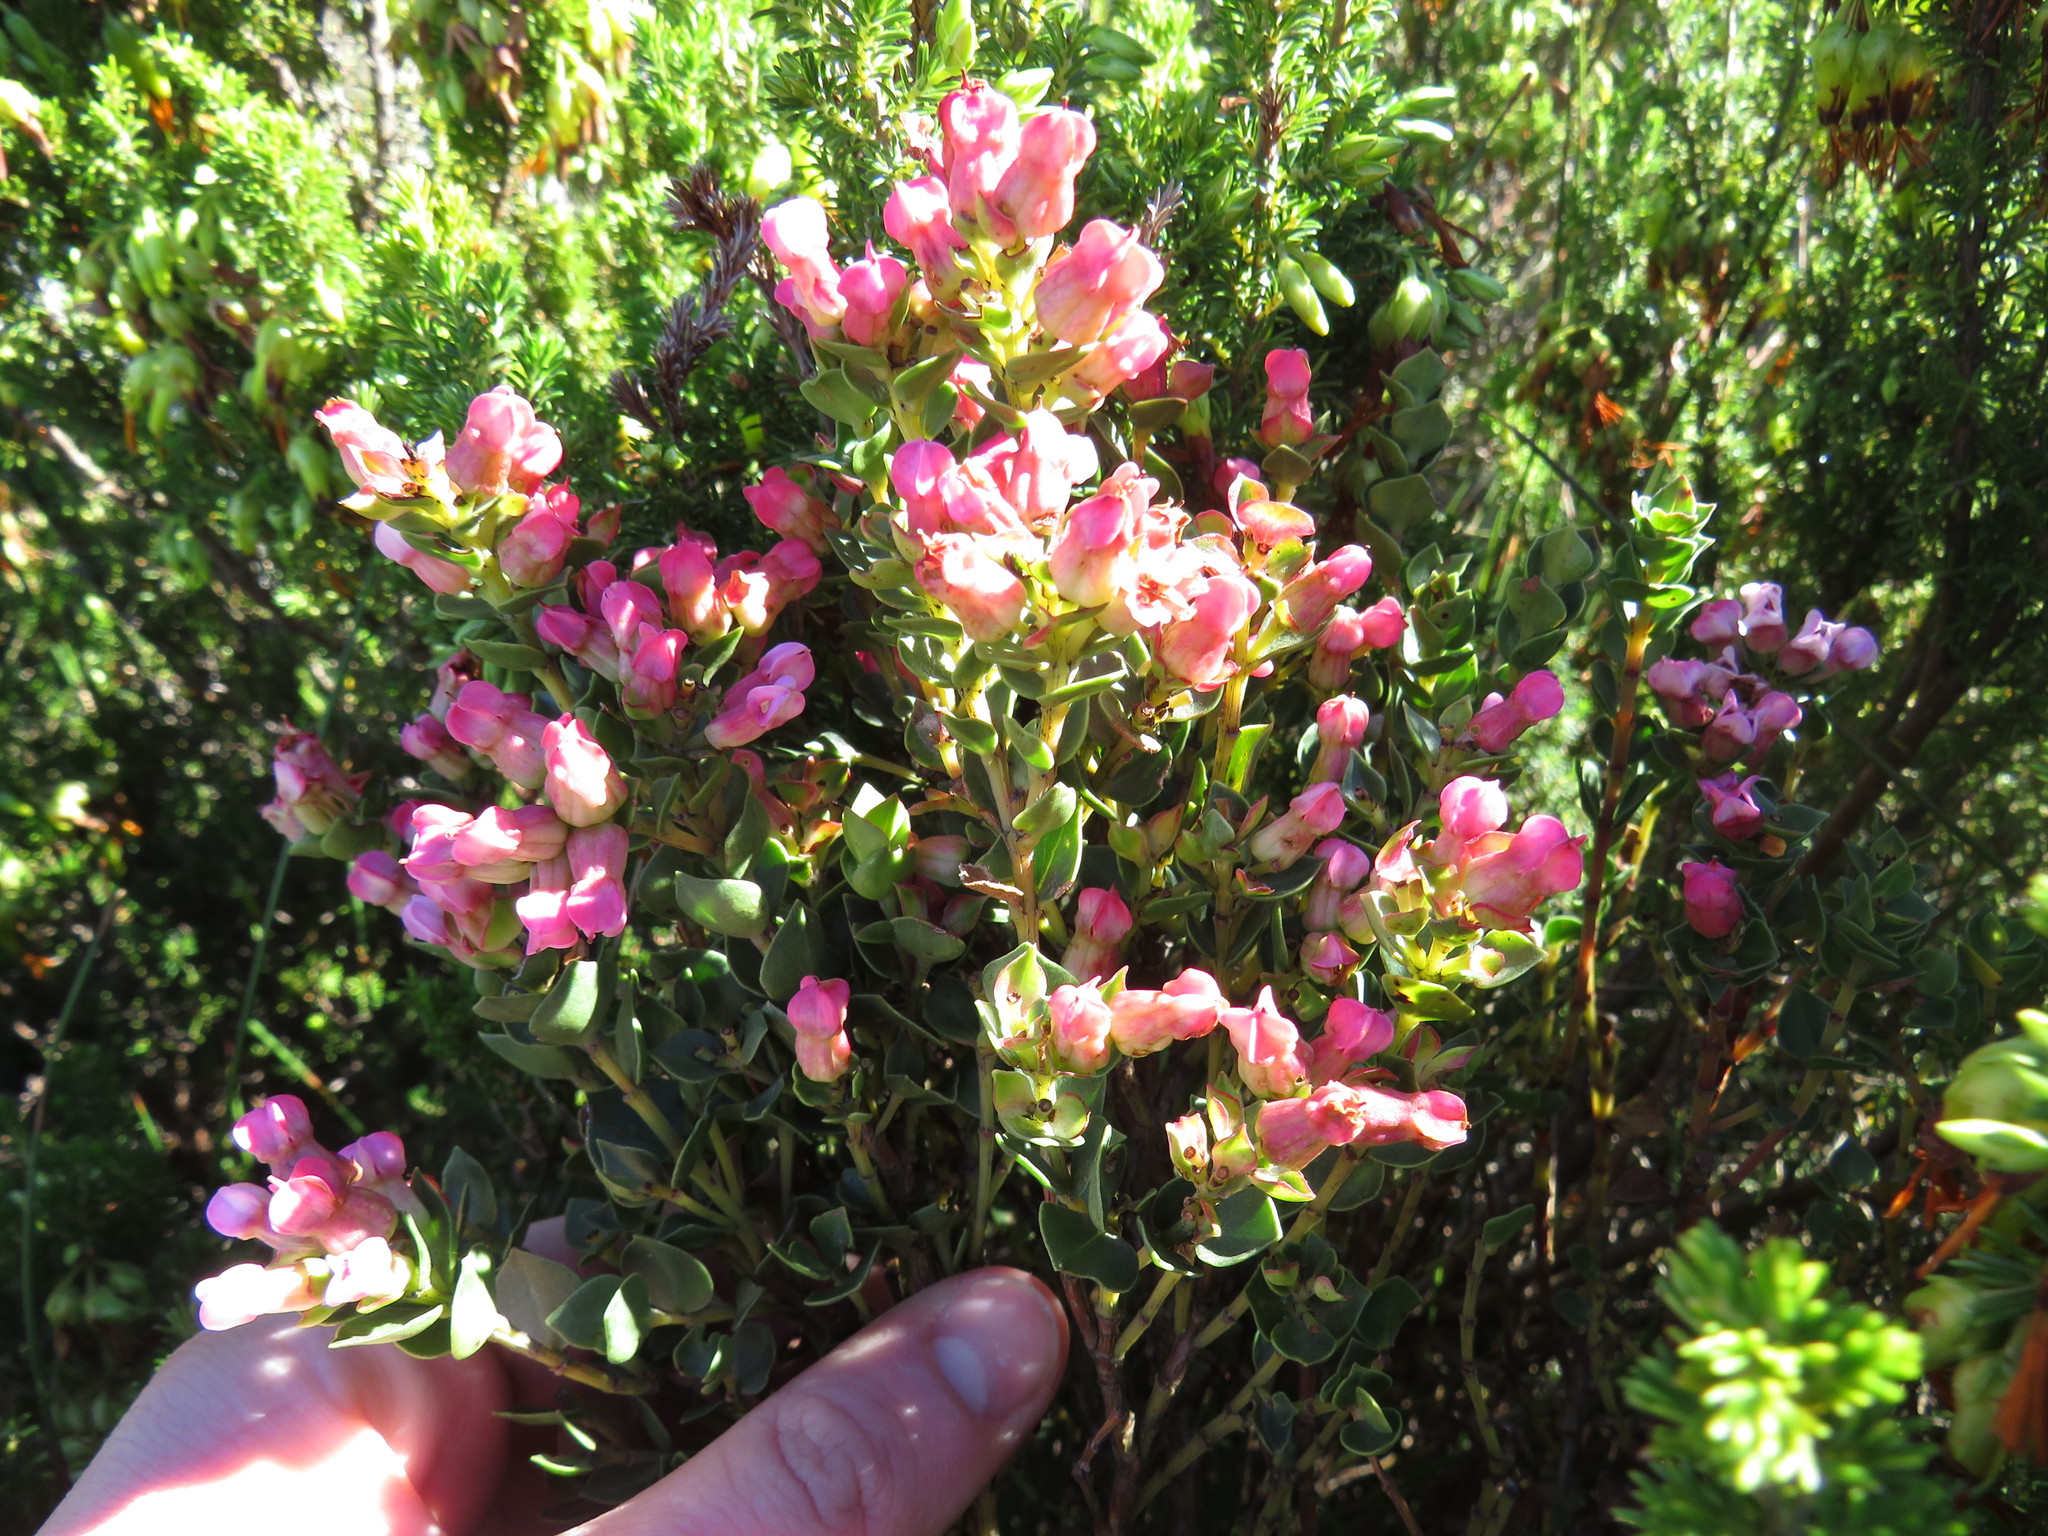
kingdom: Plantae
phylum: Tracheophyta
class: Magnoliopsida
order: Myrtales
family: Penaeaceae
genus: Brachysiphon
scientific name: Brachysiphon fucatus
